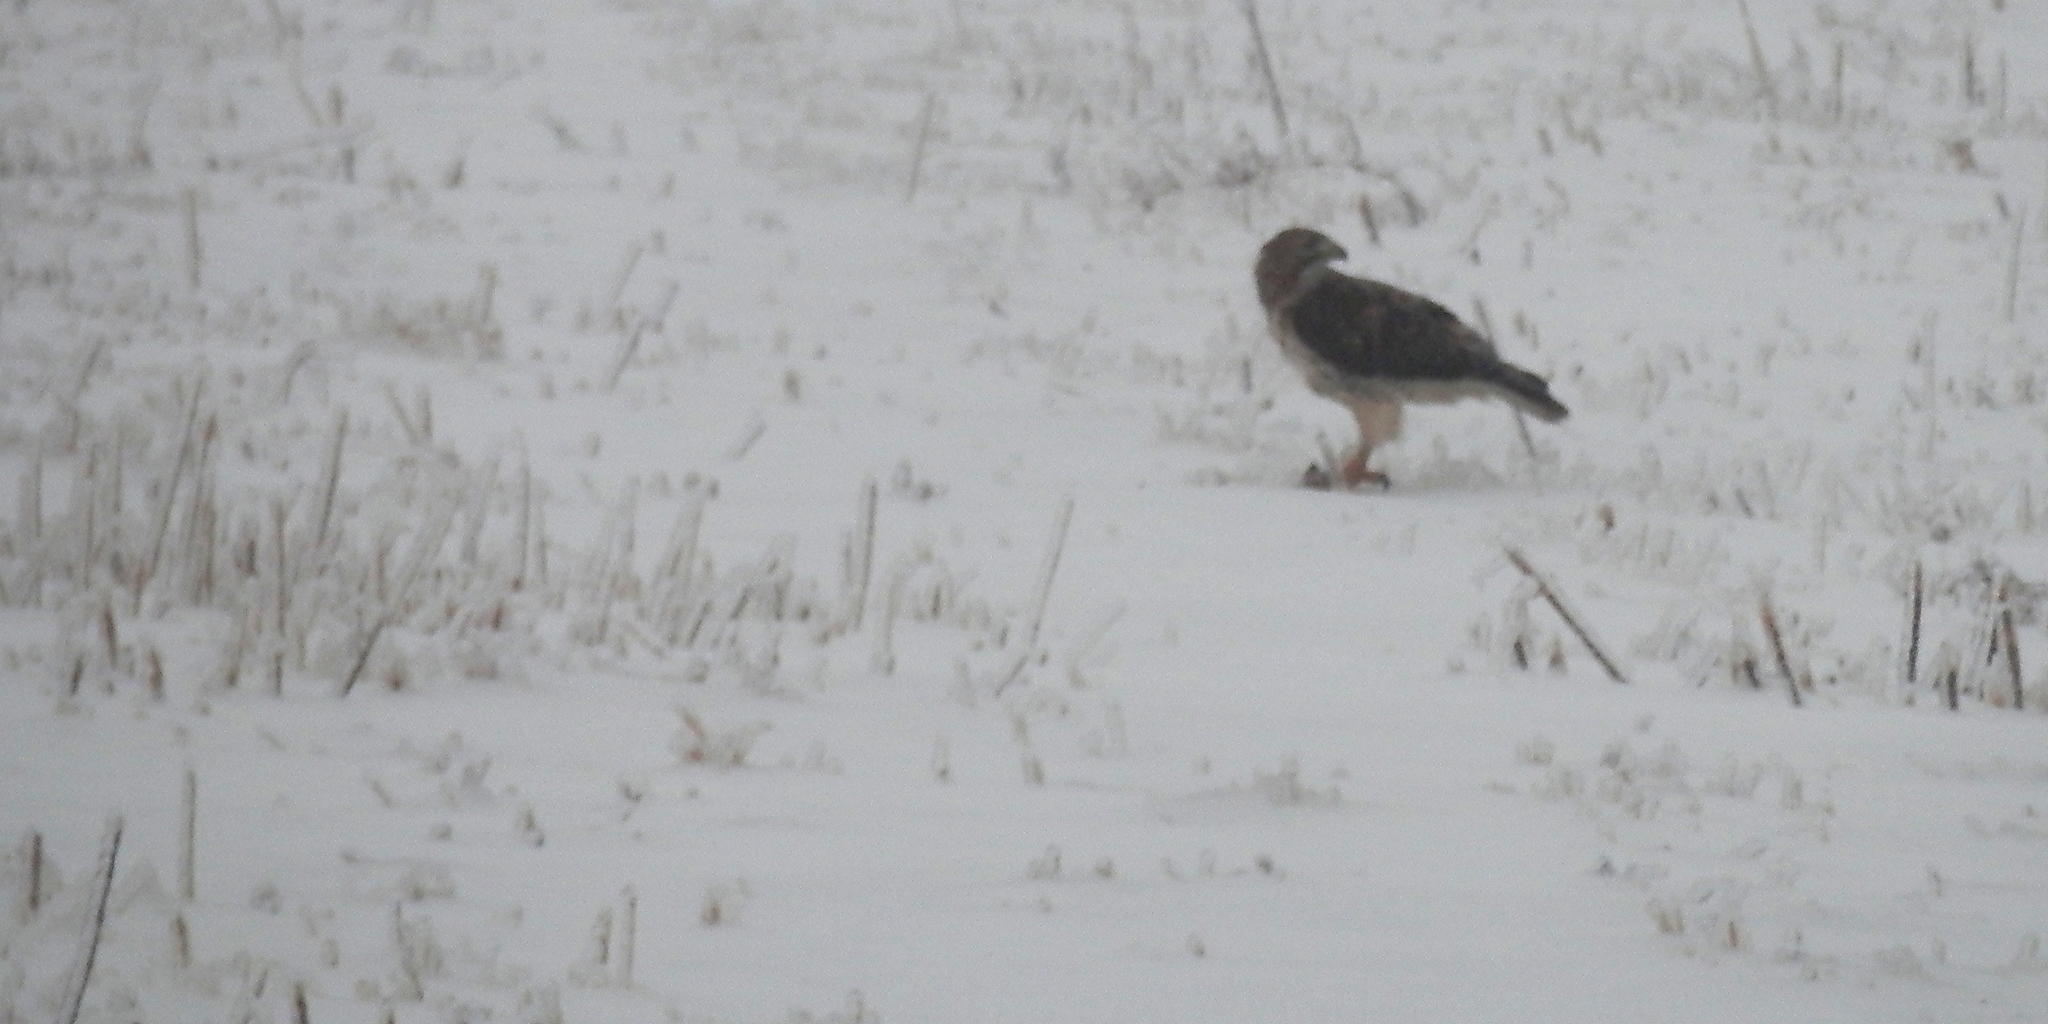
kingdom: Animalia
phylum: Chordata
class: Aves
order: Accipitriformes
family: Accipitridae
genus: Buteo
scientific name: Buteo jamaicensis
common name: Red-tailed hawk
